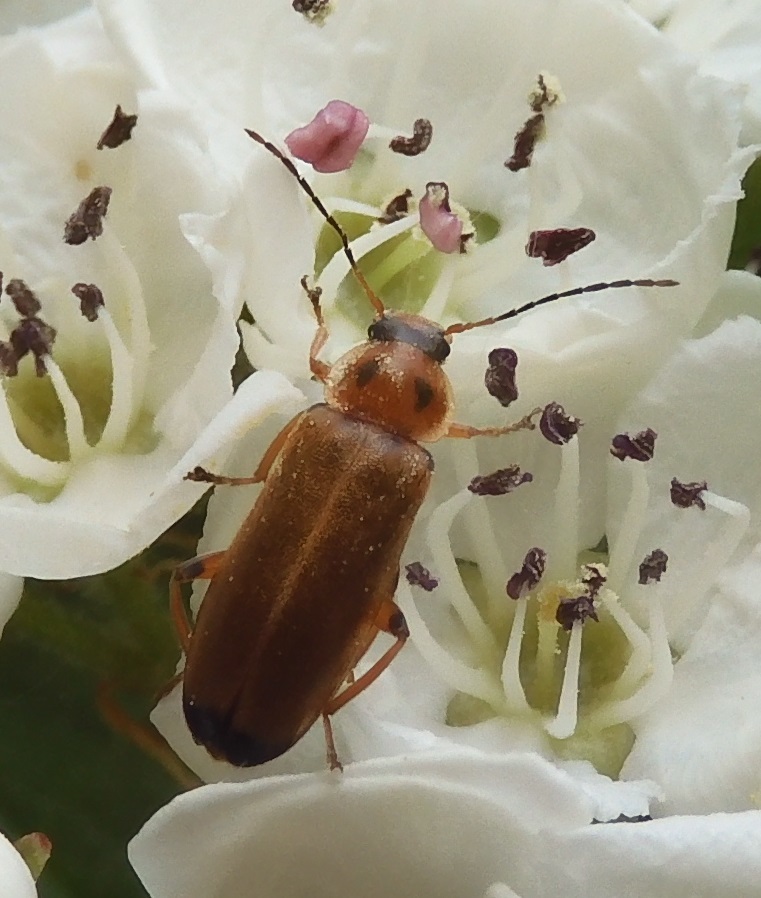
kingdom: Animalia
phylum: Arthropoda
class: Insecta
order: Coleoptera
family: Melandryidae
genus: Osphya
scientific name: Osphya bipunctata
